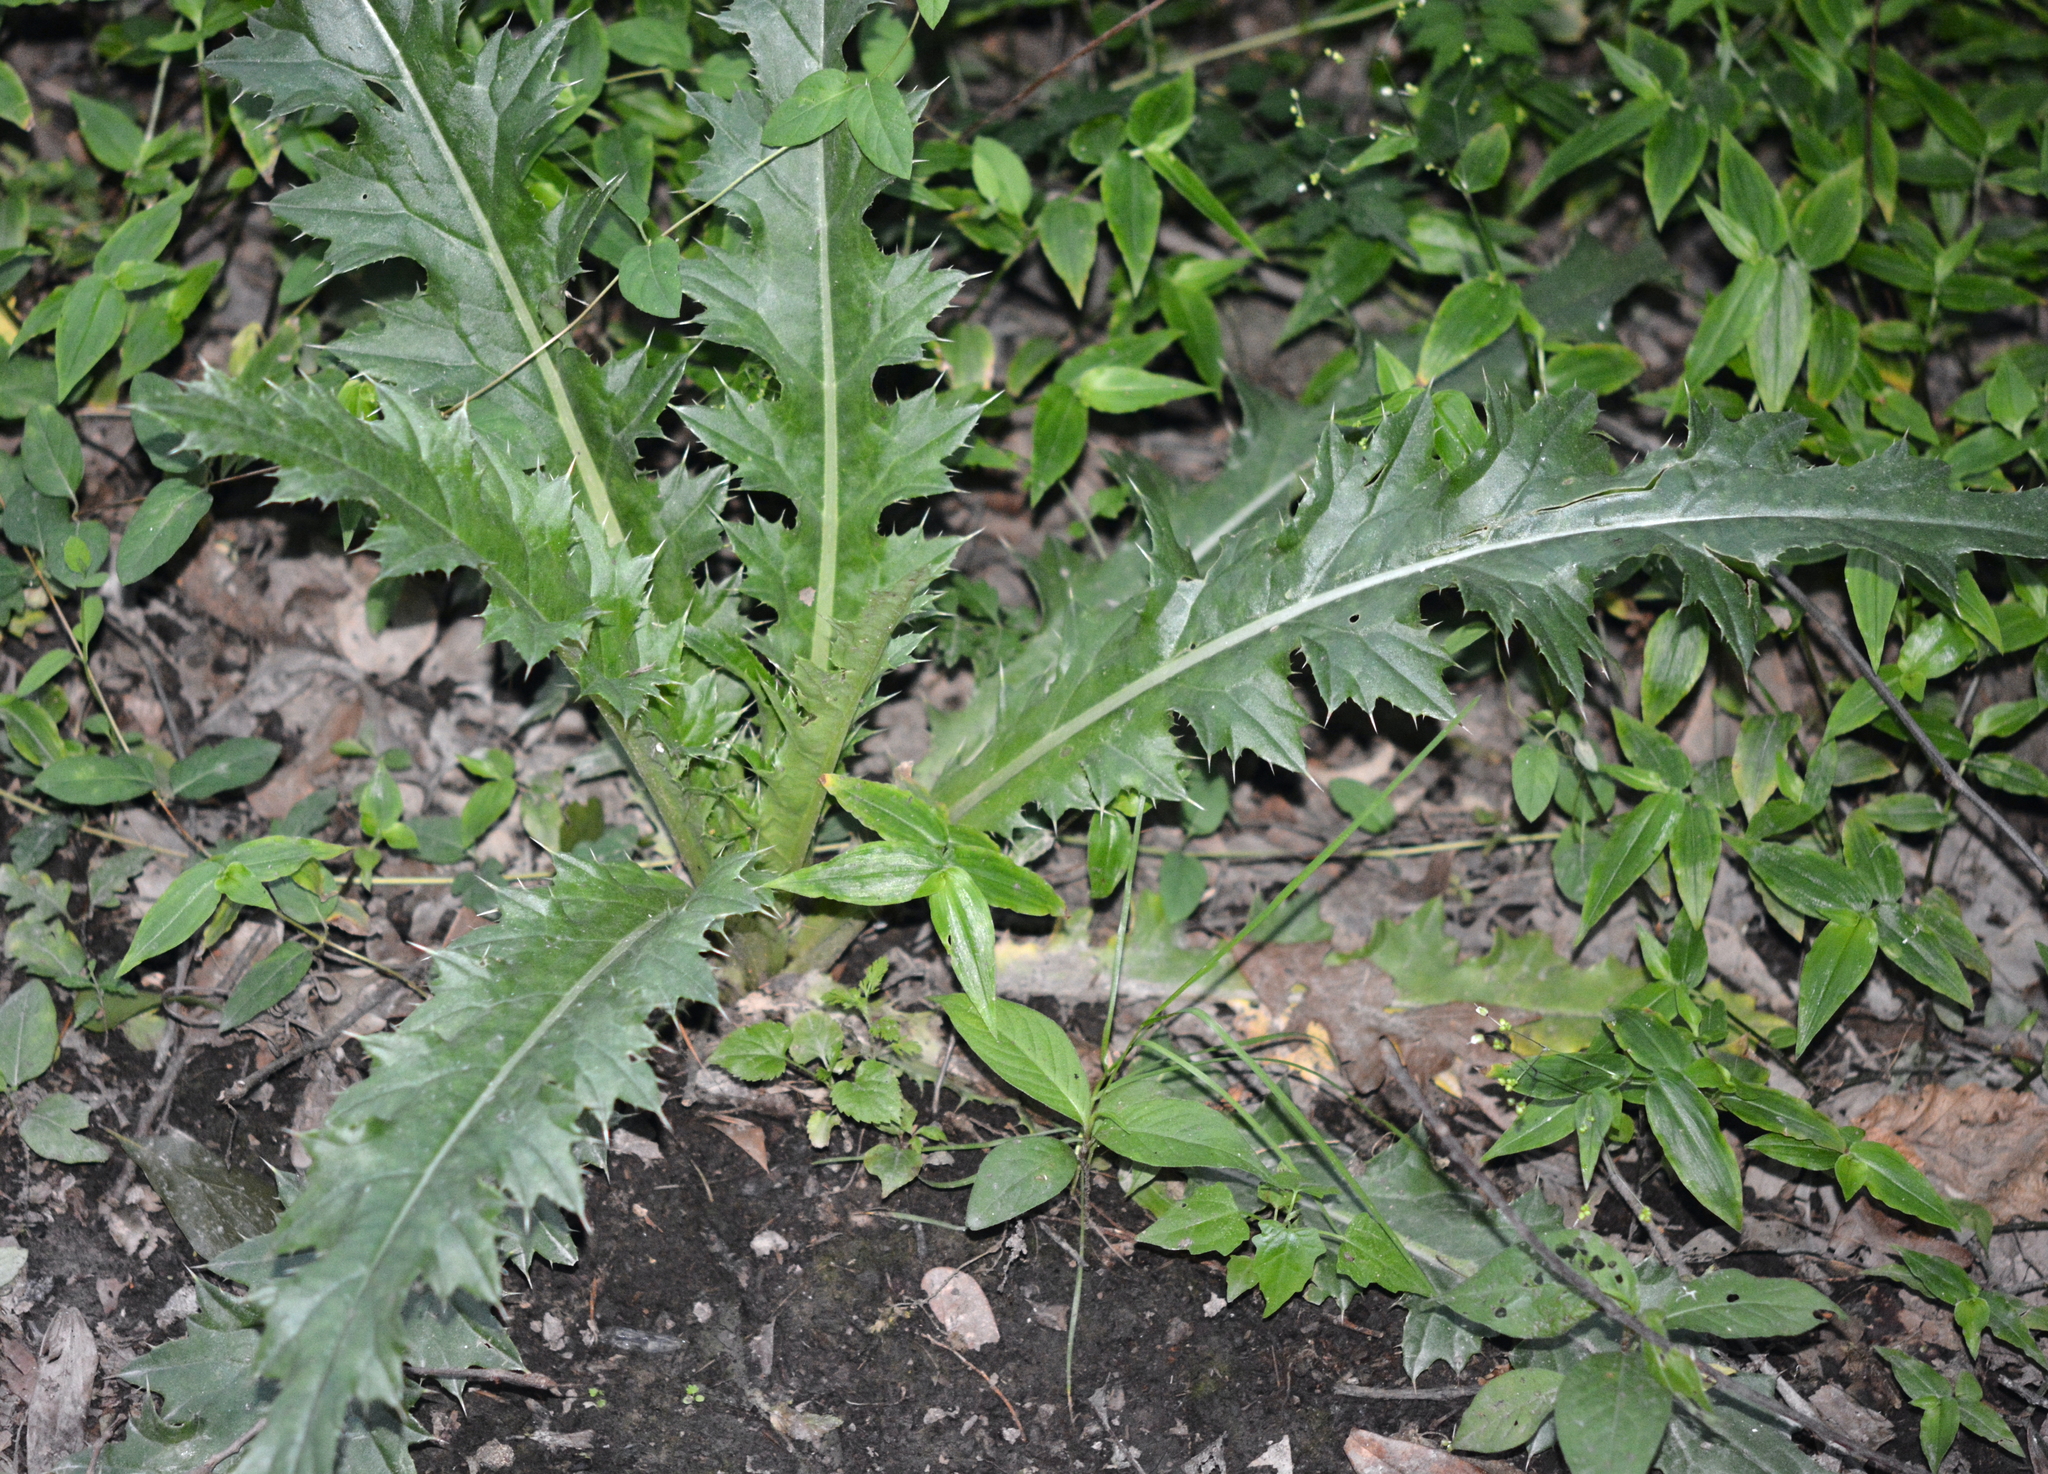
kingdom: Plantae
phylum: Tracheophyta
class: Magnoliopsida
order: Asterales
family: Asteraceae
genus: Cirsium
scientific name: Cirsium horridulum
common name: Bristly thistle
